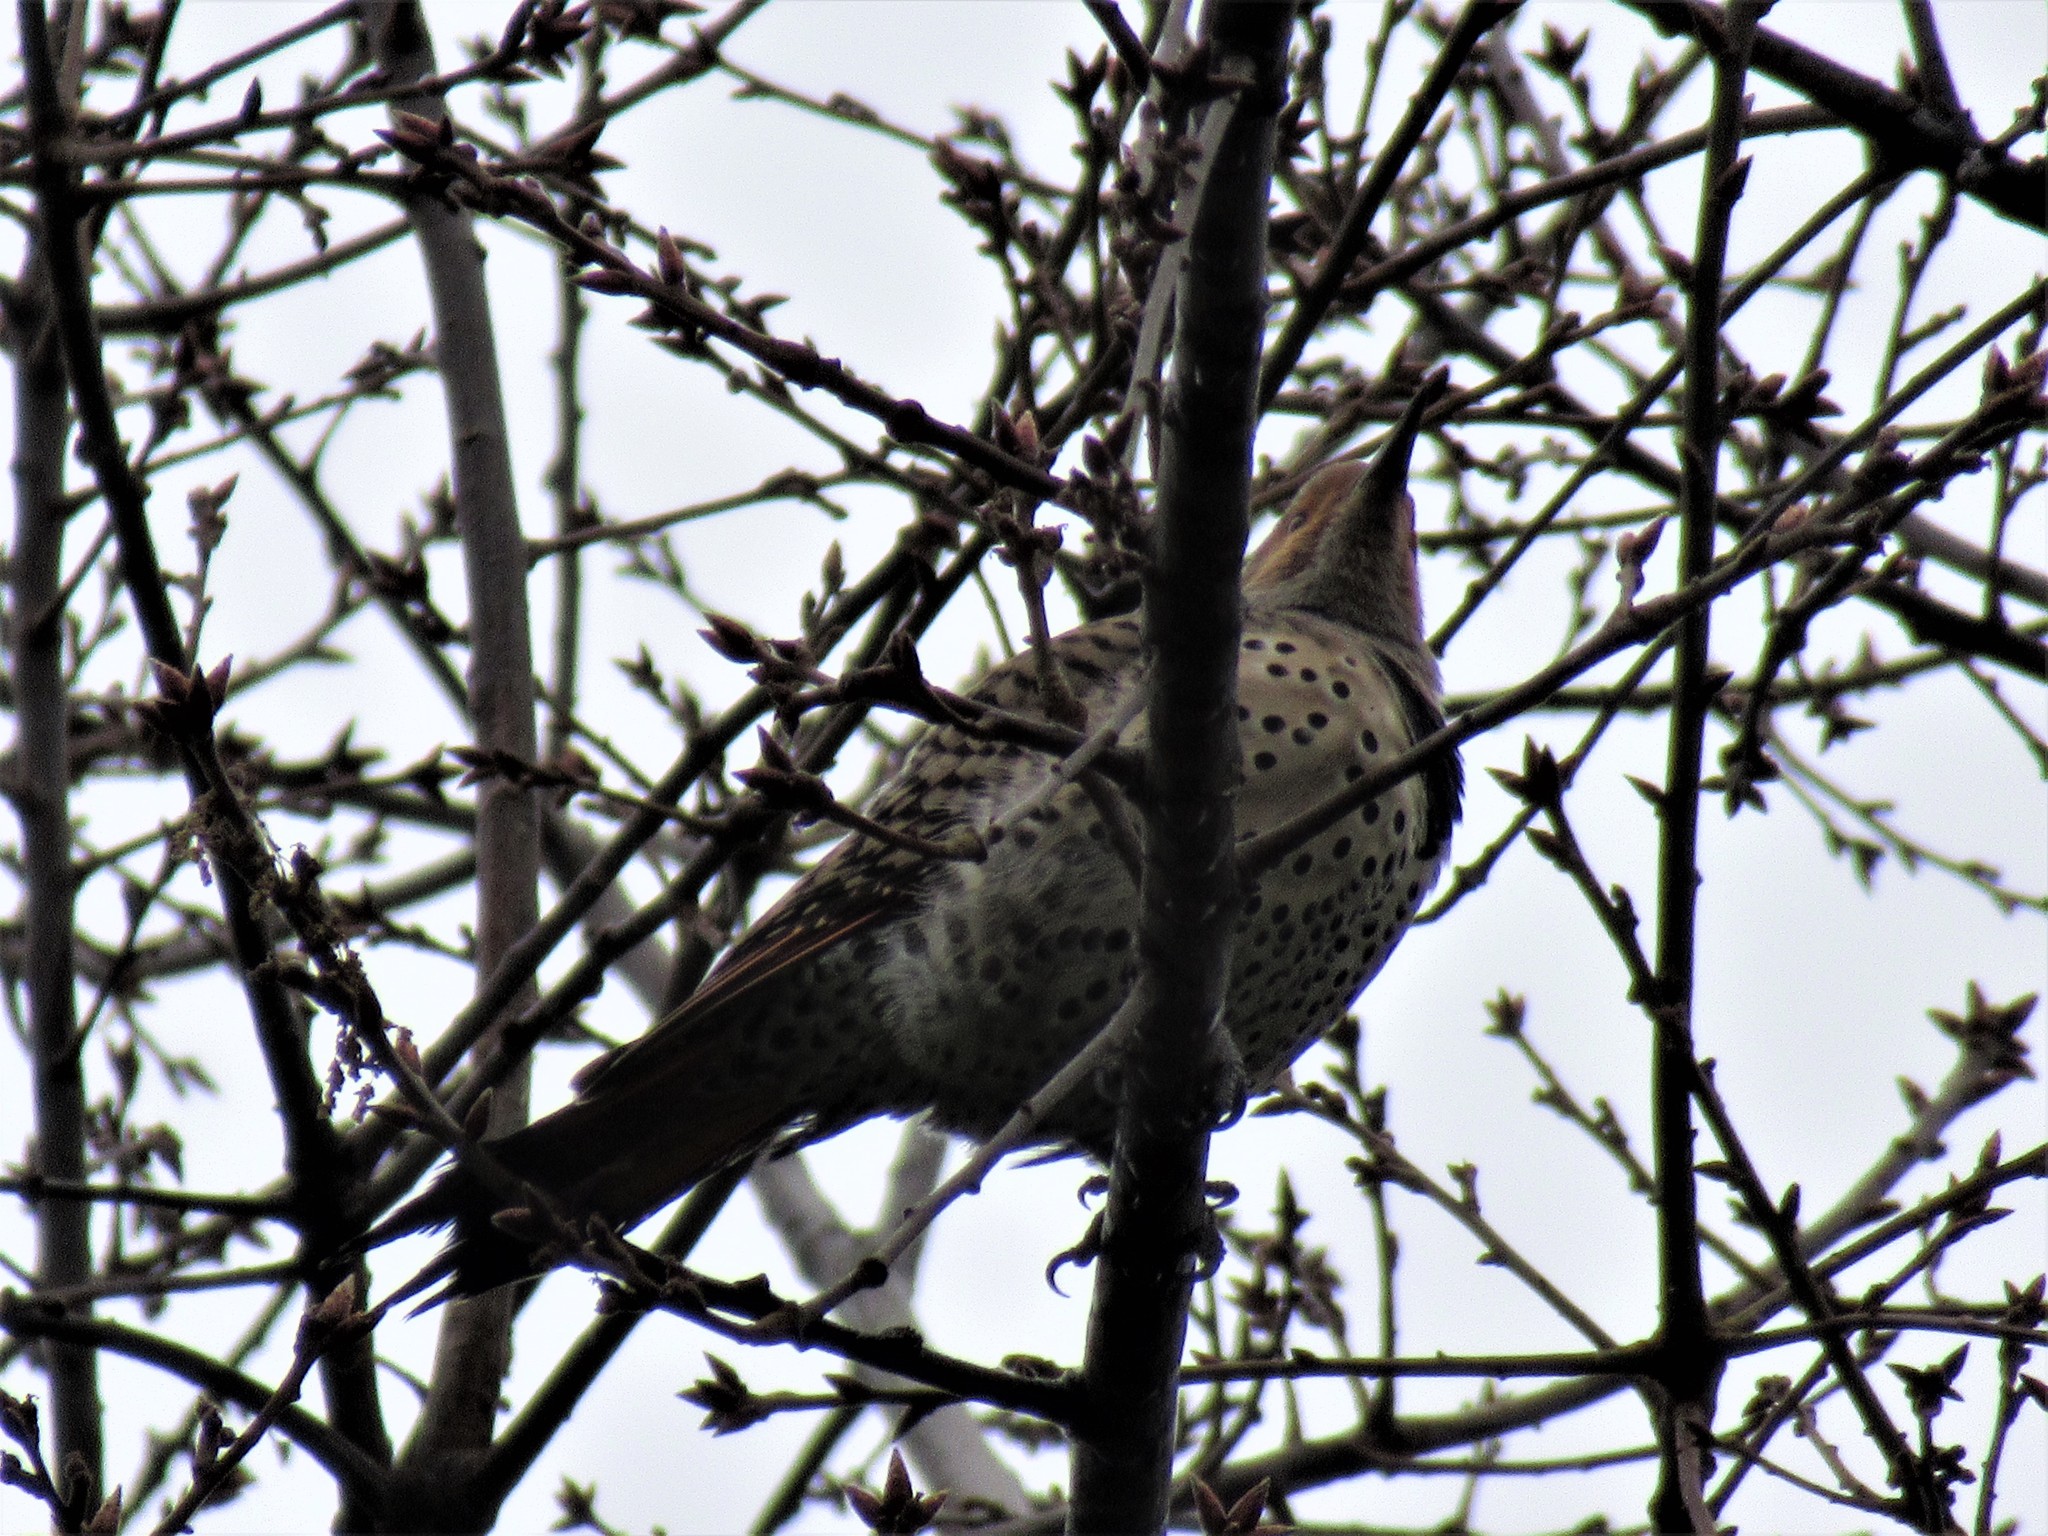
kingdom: Animalia
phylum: Chordata
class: Aves
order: Piciformes
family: Picidae
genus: Colaptes
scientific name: Colaptes auratus
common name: Northern flicker
